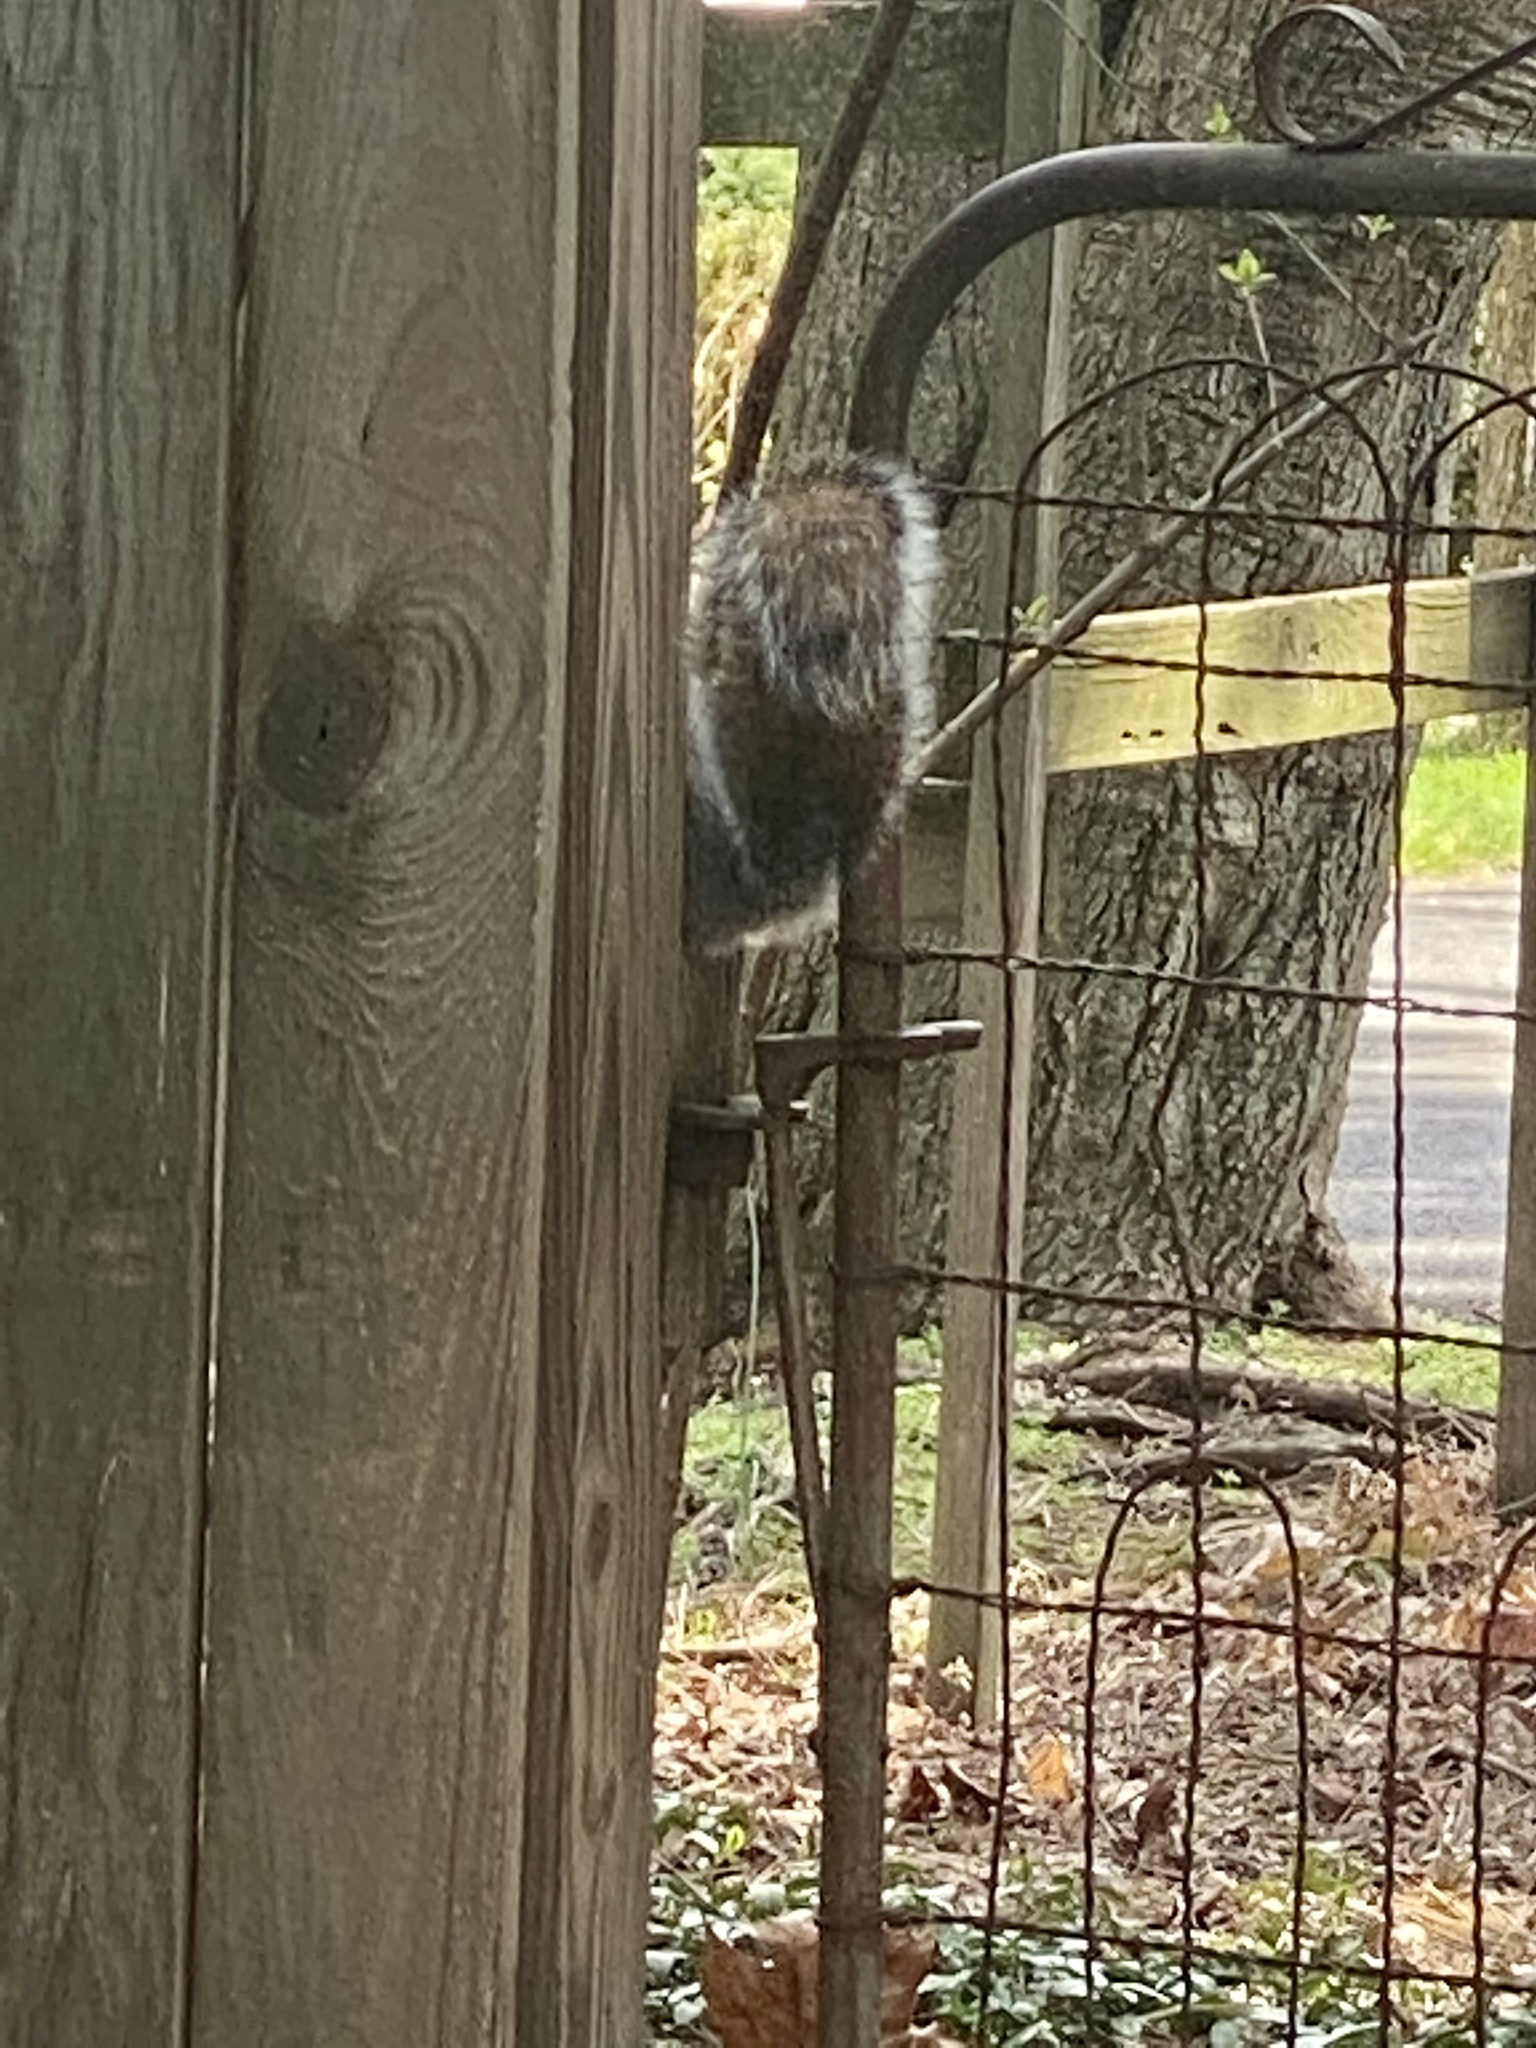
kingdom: Animalia
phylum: Chordata
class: Mammalia
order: Rodentia
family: Sciuridae
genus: Sciurus
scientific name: Sciurus carolinensis
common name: Eastern gray squirrel
